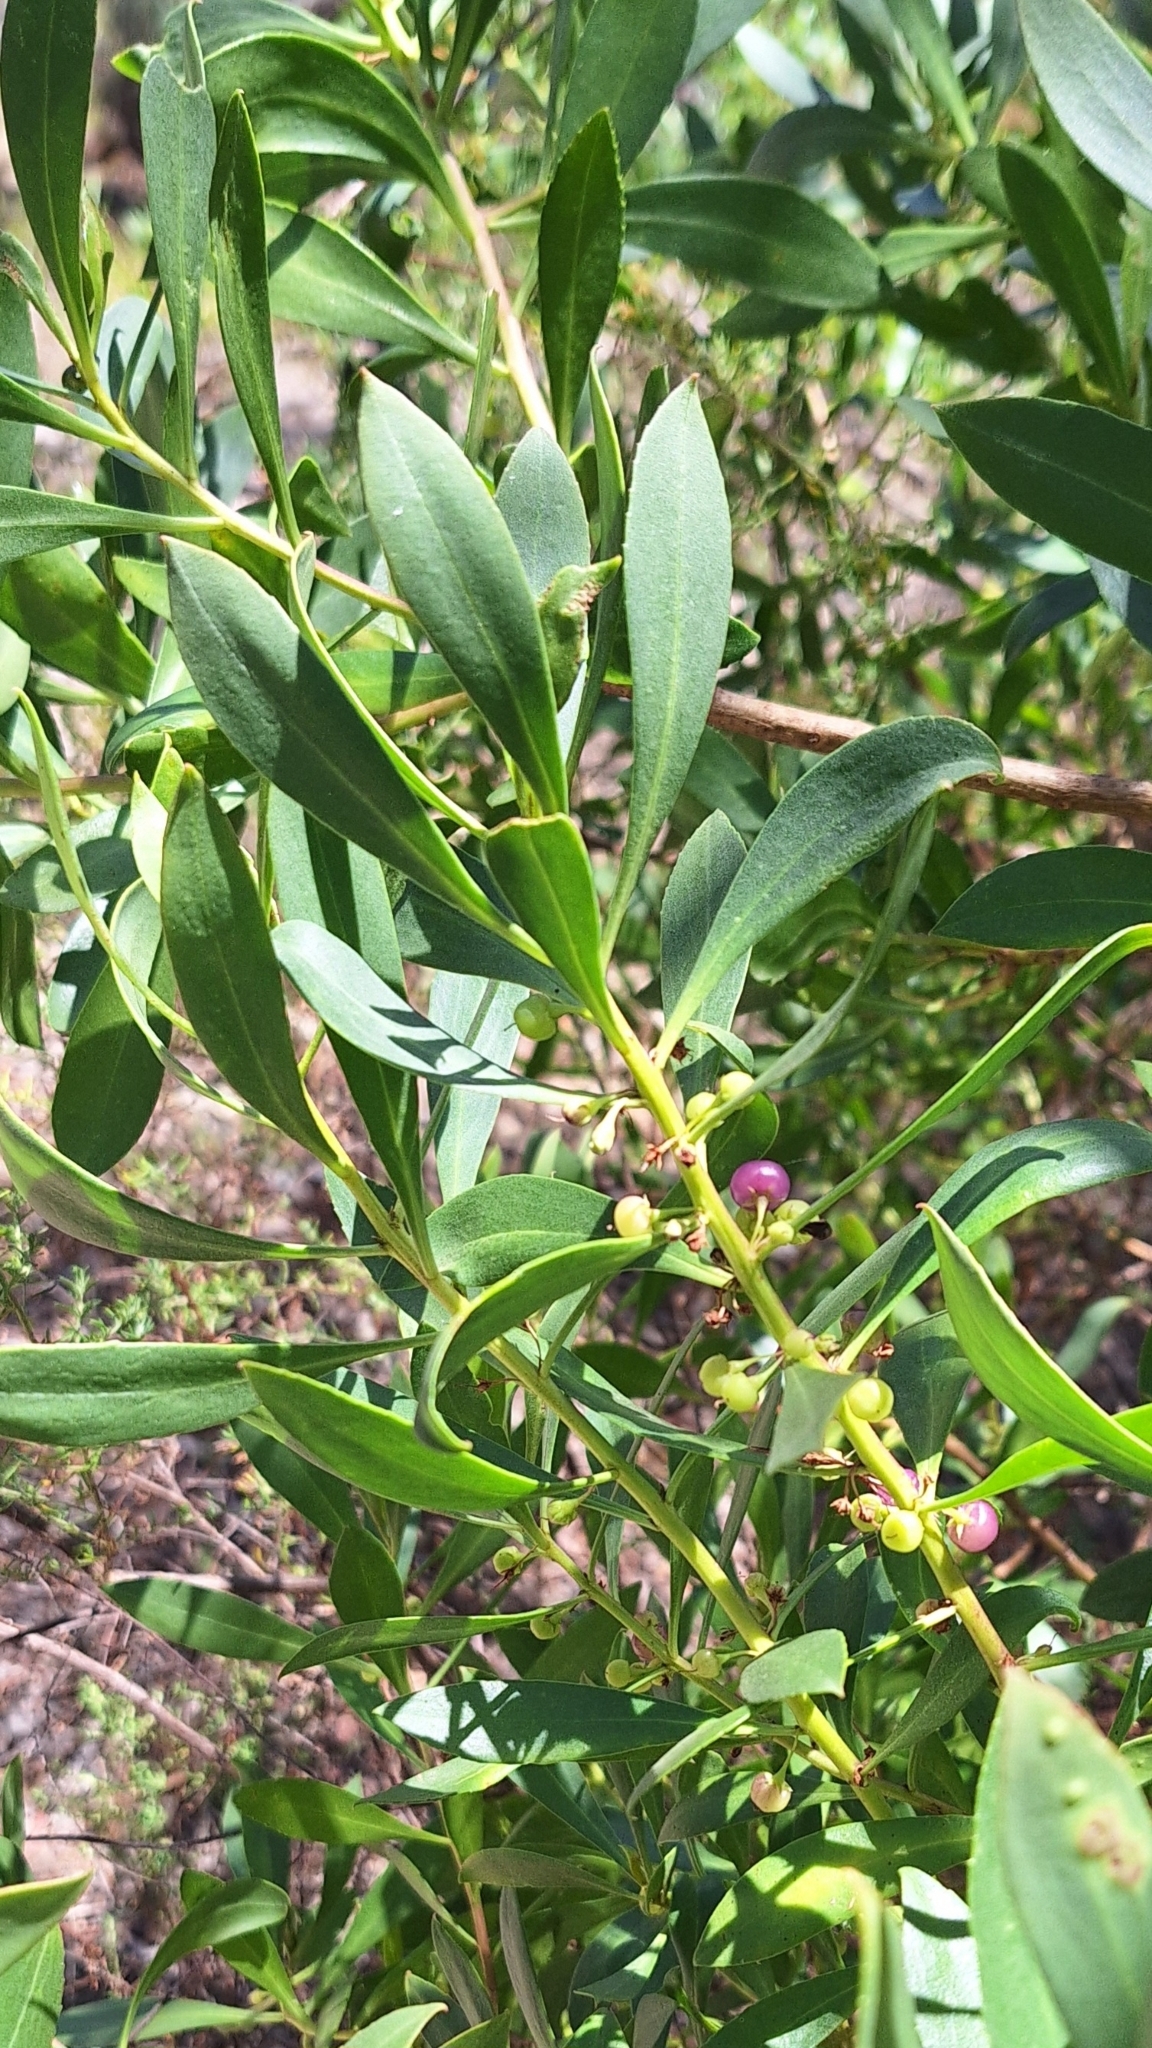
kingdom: Plantae
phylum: Tracheophyta
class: Magnoliopsida
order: Lamiales
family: Scrophulariaceae
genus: Myoporum
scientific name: Myoporum insulare
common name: Common boobialla
